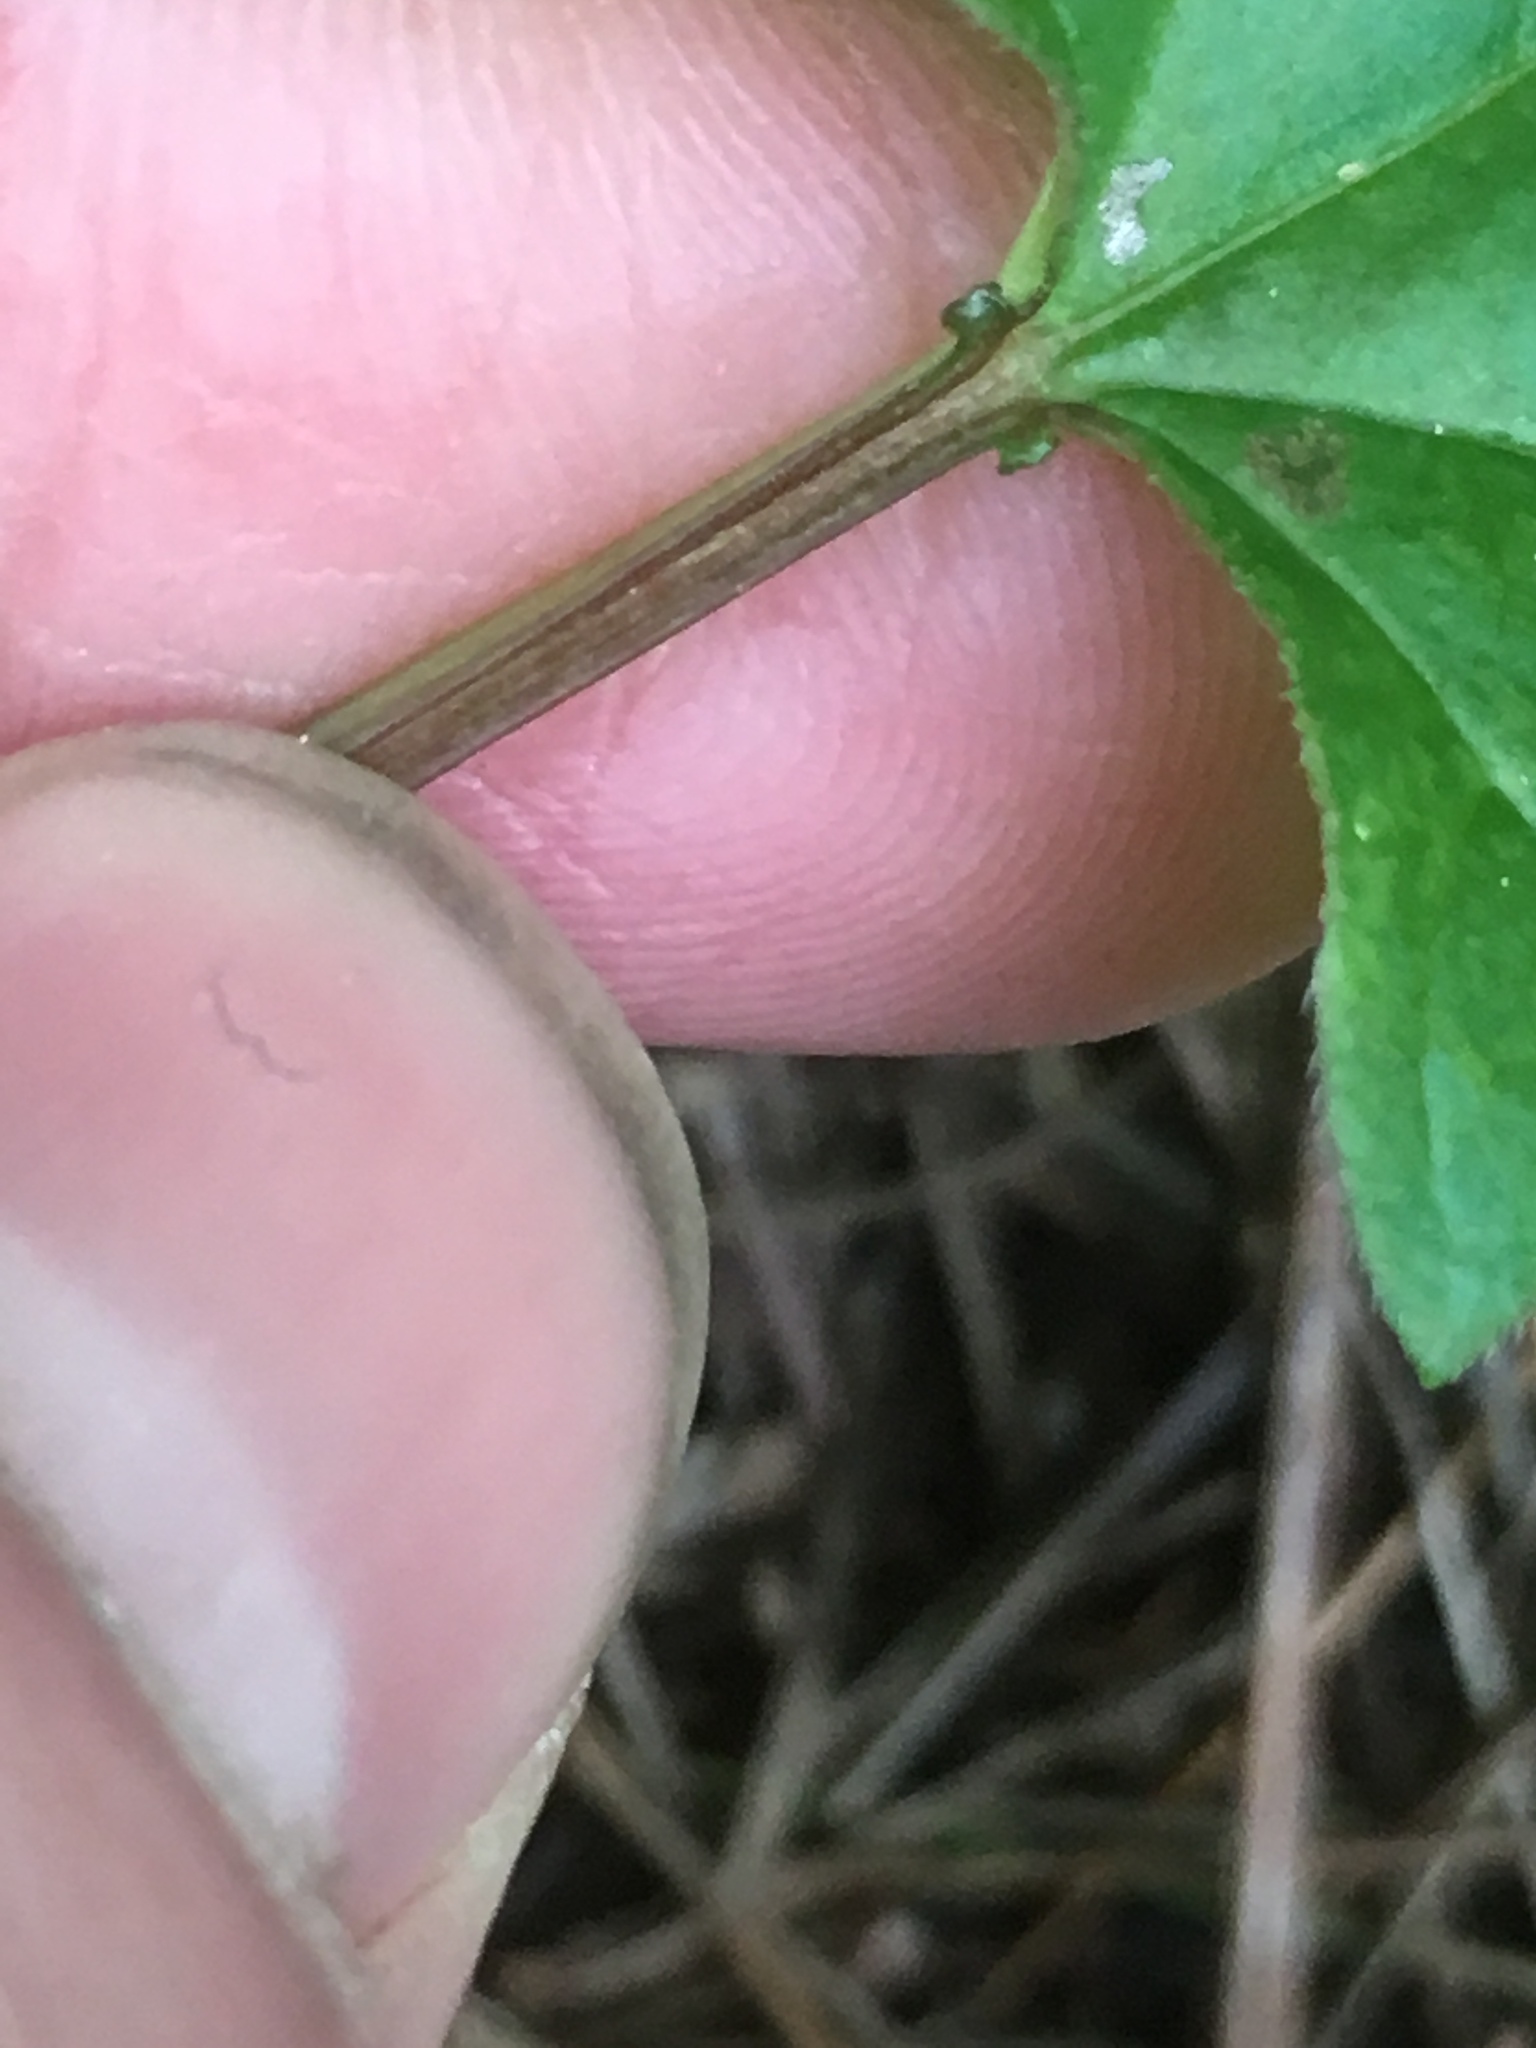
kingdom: Plantae
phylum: Tracheophyta
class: Magnoliopsida
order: Dipsacales
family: Viburnaceae
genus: Viburnum
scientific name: Viburnum opulus
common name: Guelder-rose
